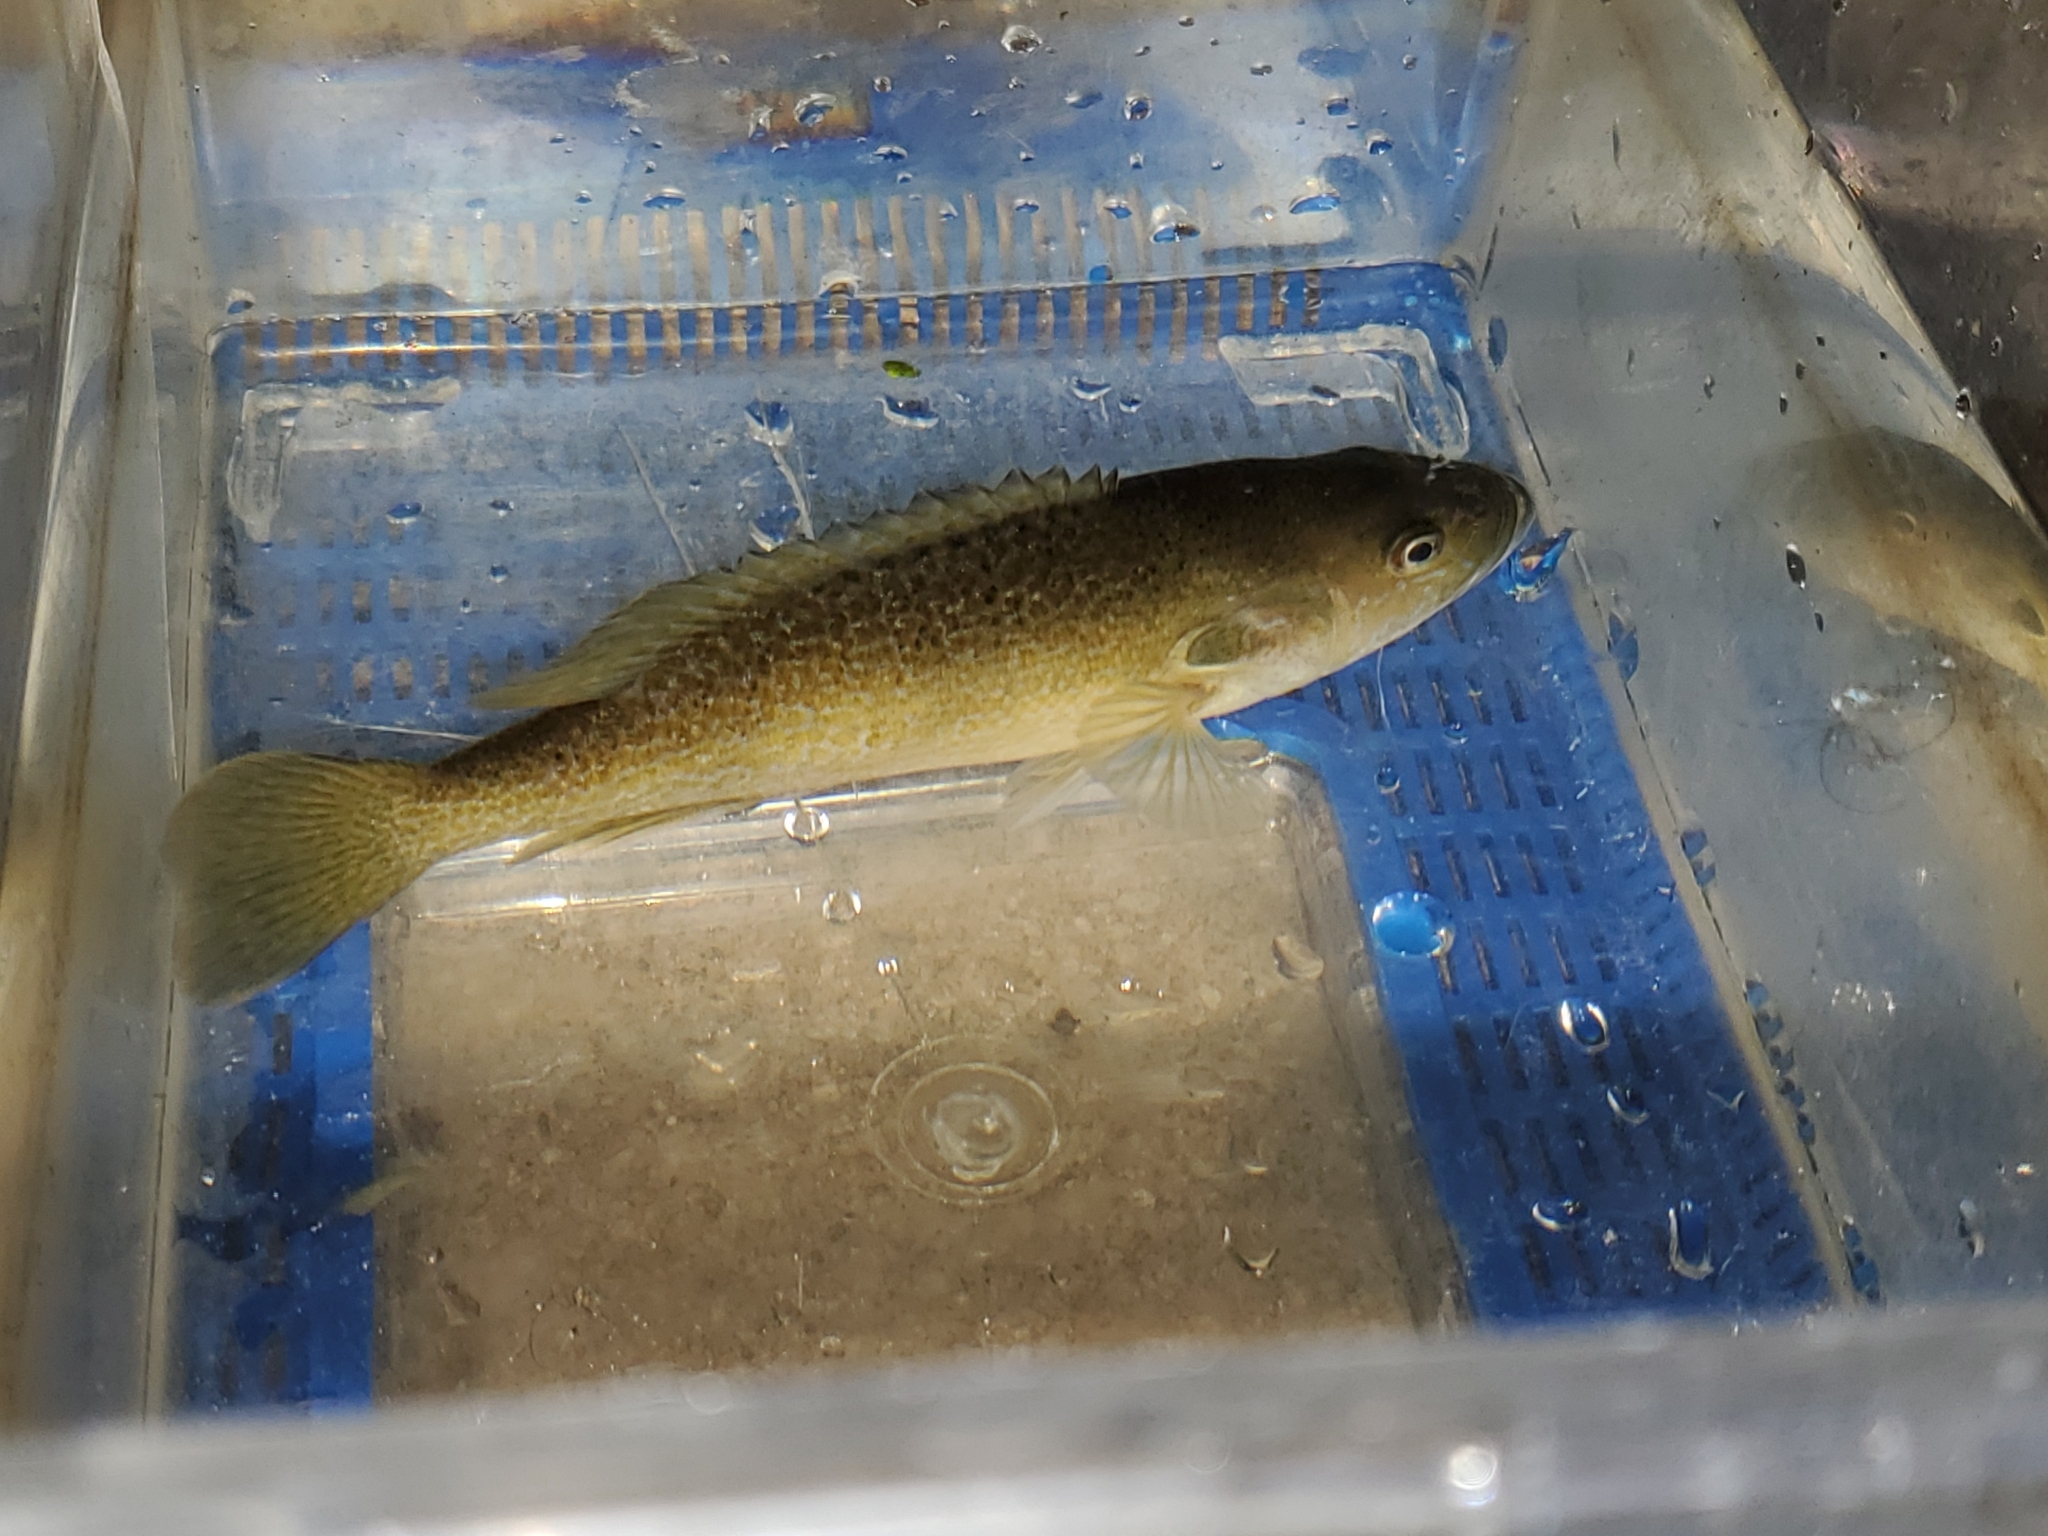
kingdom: Animalia
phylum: Chordata
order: Perciformes
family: Centrarchidae
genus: Lepomis
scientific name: Lepomis cyanellus
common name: Green sunfish
